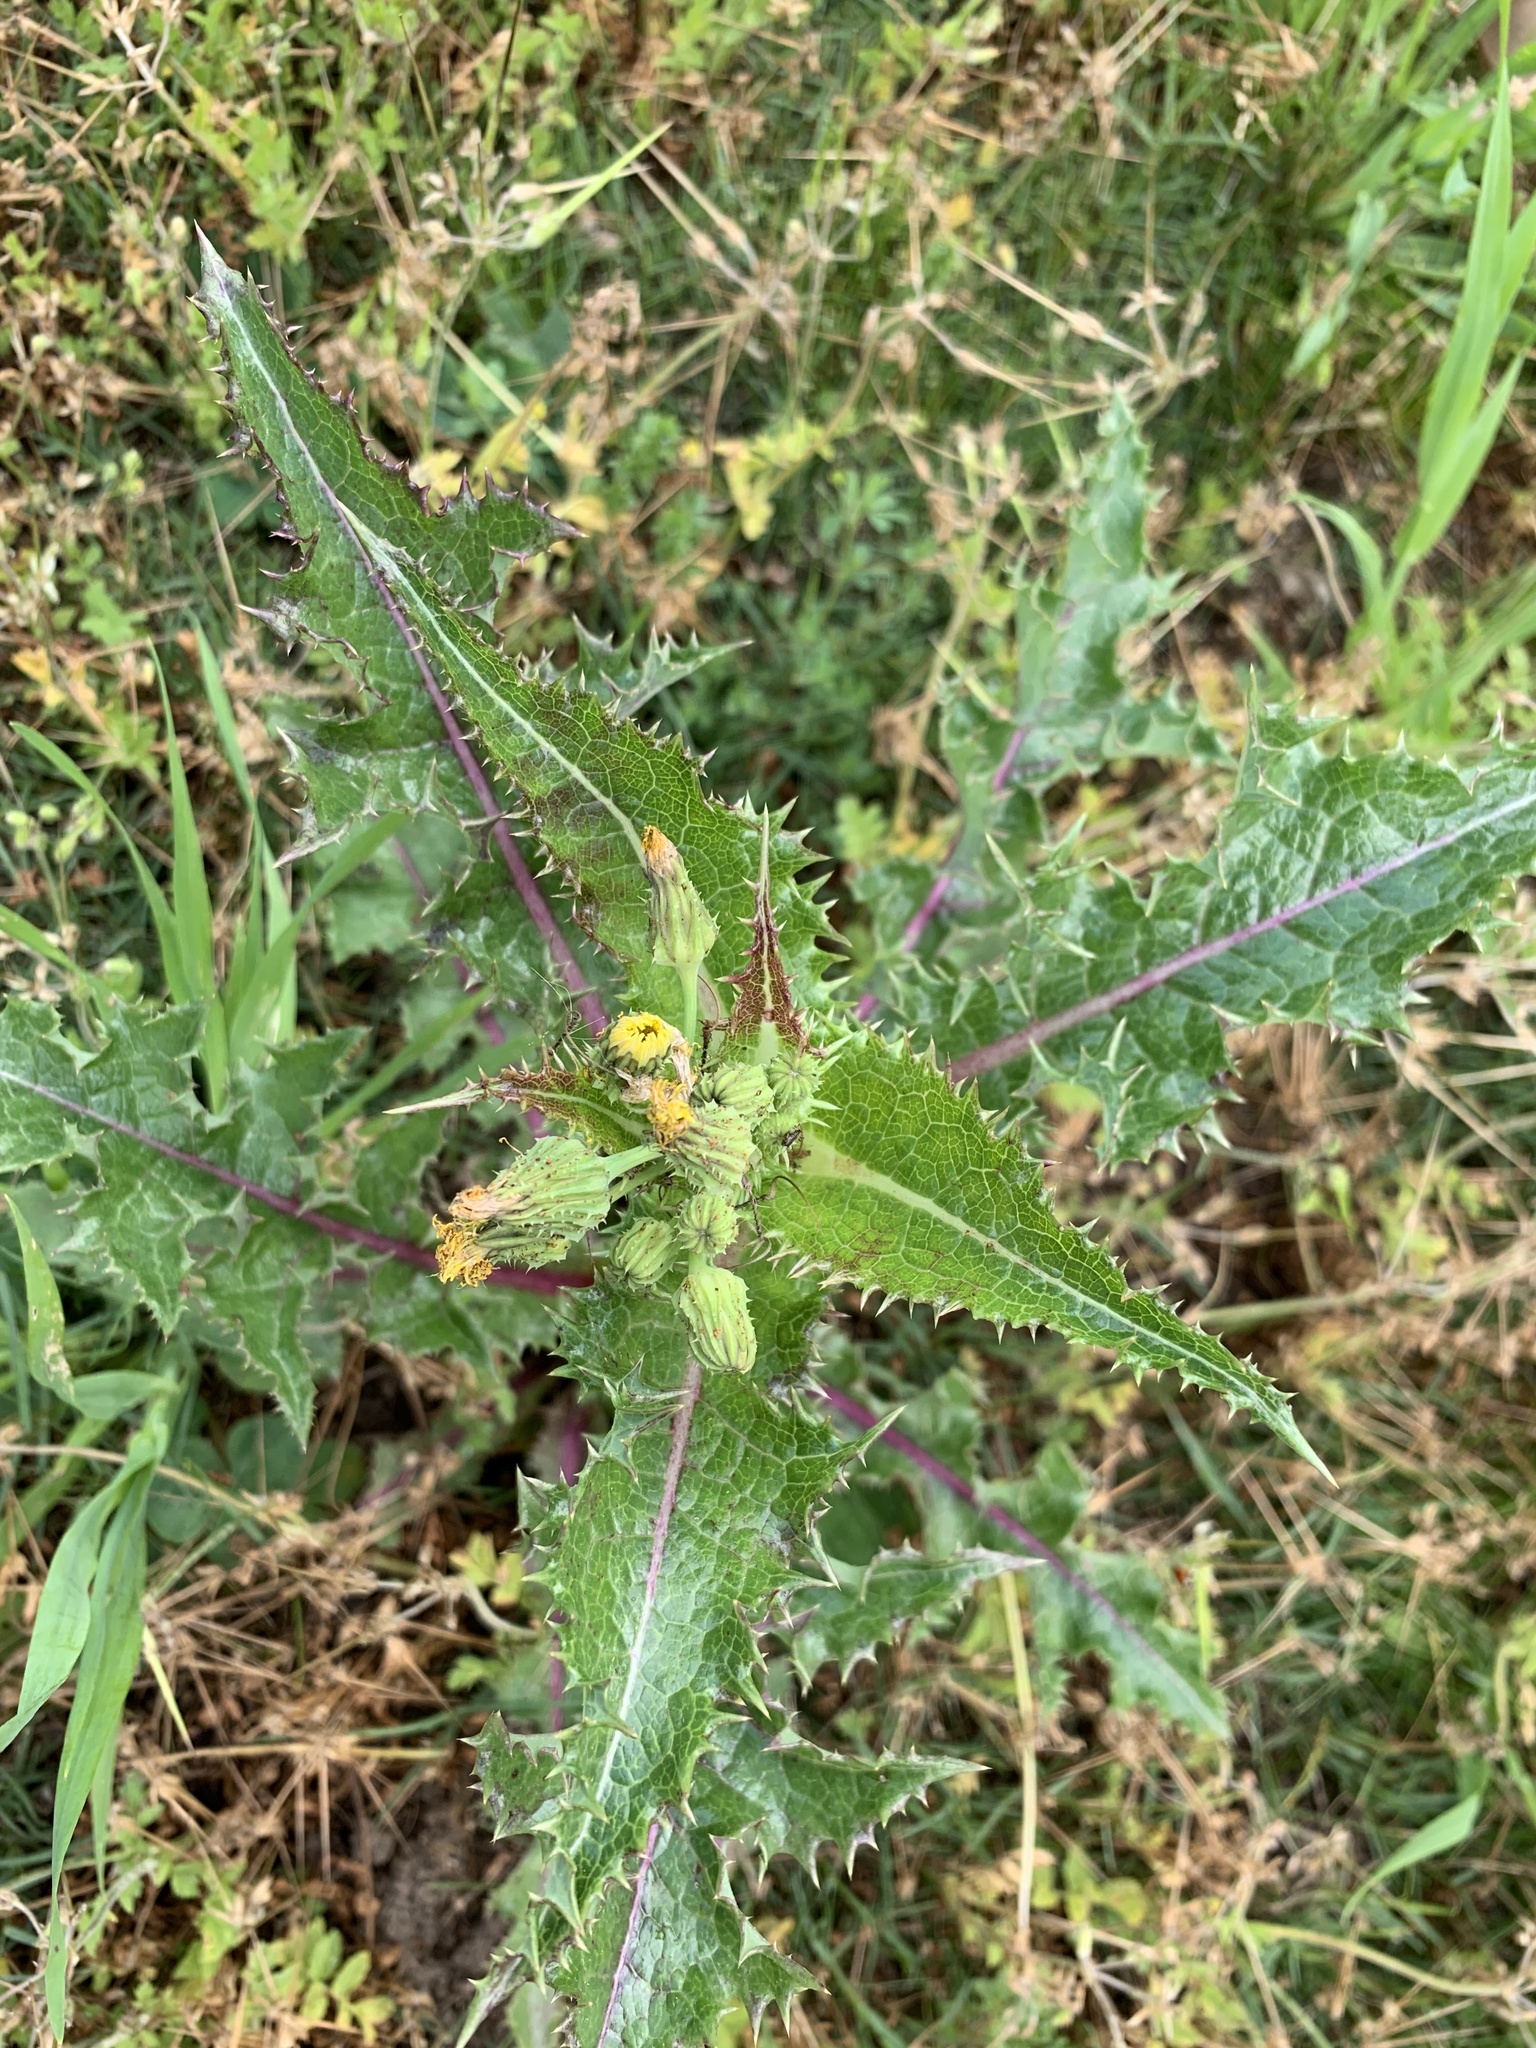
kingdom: Plantae
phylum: Tracheophyta
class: Magnoliopsida
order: Asterales
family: Asteraceae
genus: Sonchus
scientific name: Sonchus asper
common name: Prickly sow-thistle
